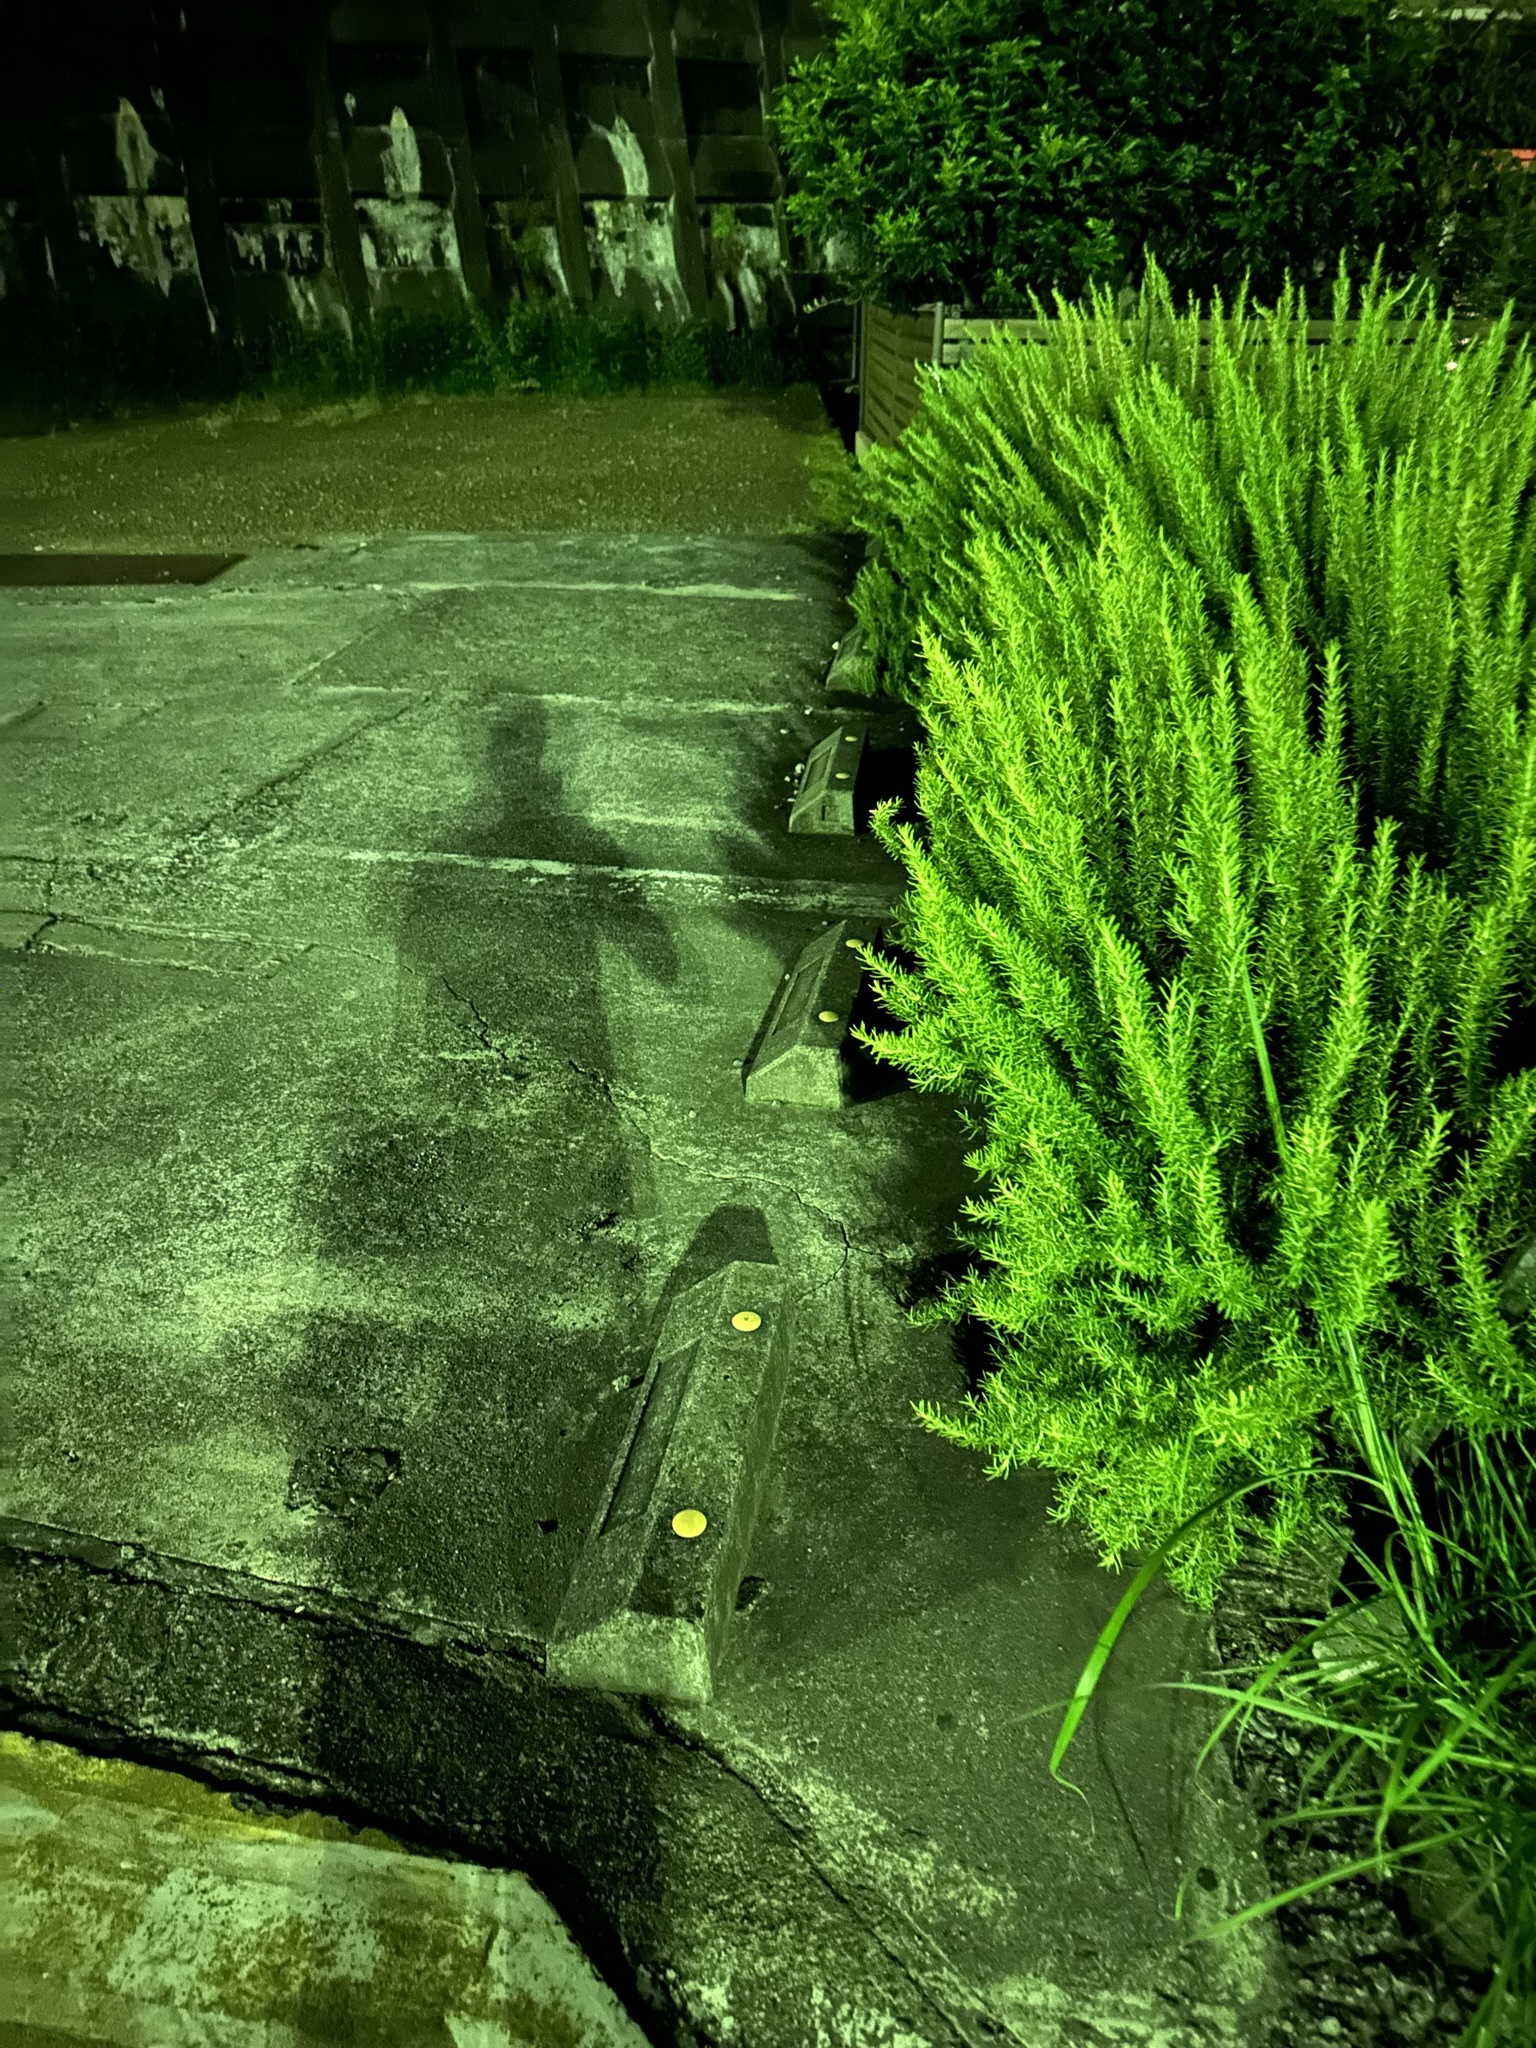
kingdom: Animalia
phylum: Arthropoda
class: Insecta
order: Orthoptera
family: Gryllidae
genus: Xenogryllus
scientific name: Xenogryllus marmoratus
